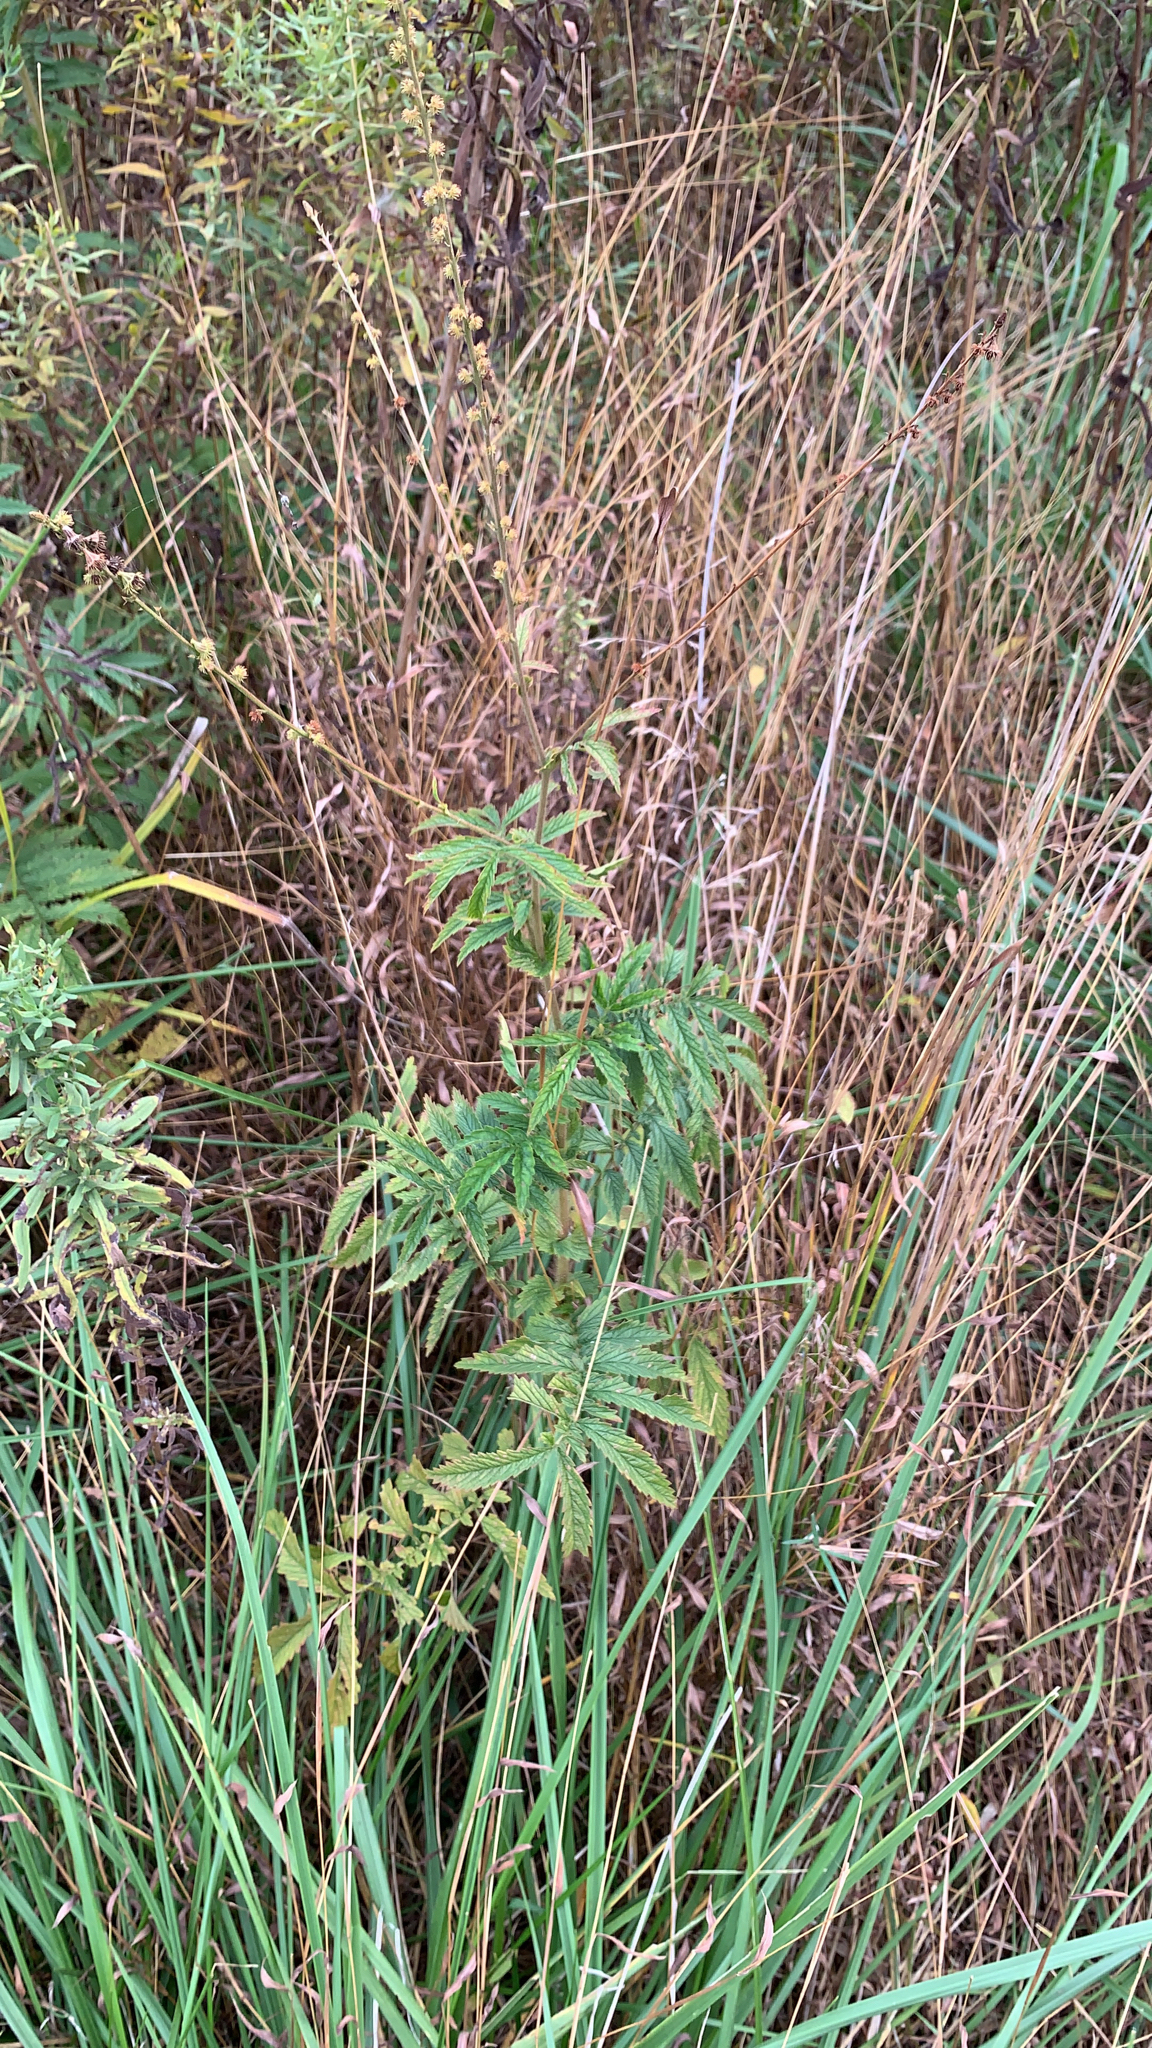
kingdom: Plantae
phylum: Tracheophyta
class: Magnoliopsida
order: Rosales
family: Rosaceae
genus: Agrimonia
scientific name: Agrimonia parviflora
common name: Harvest-lice
